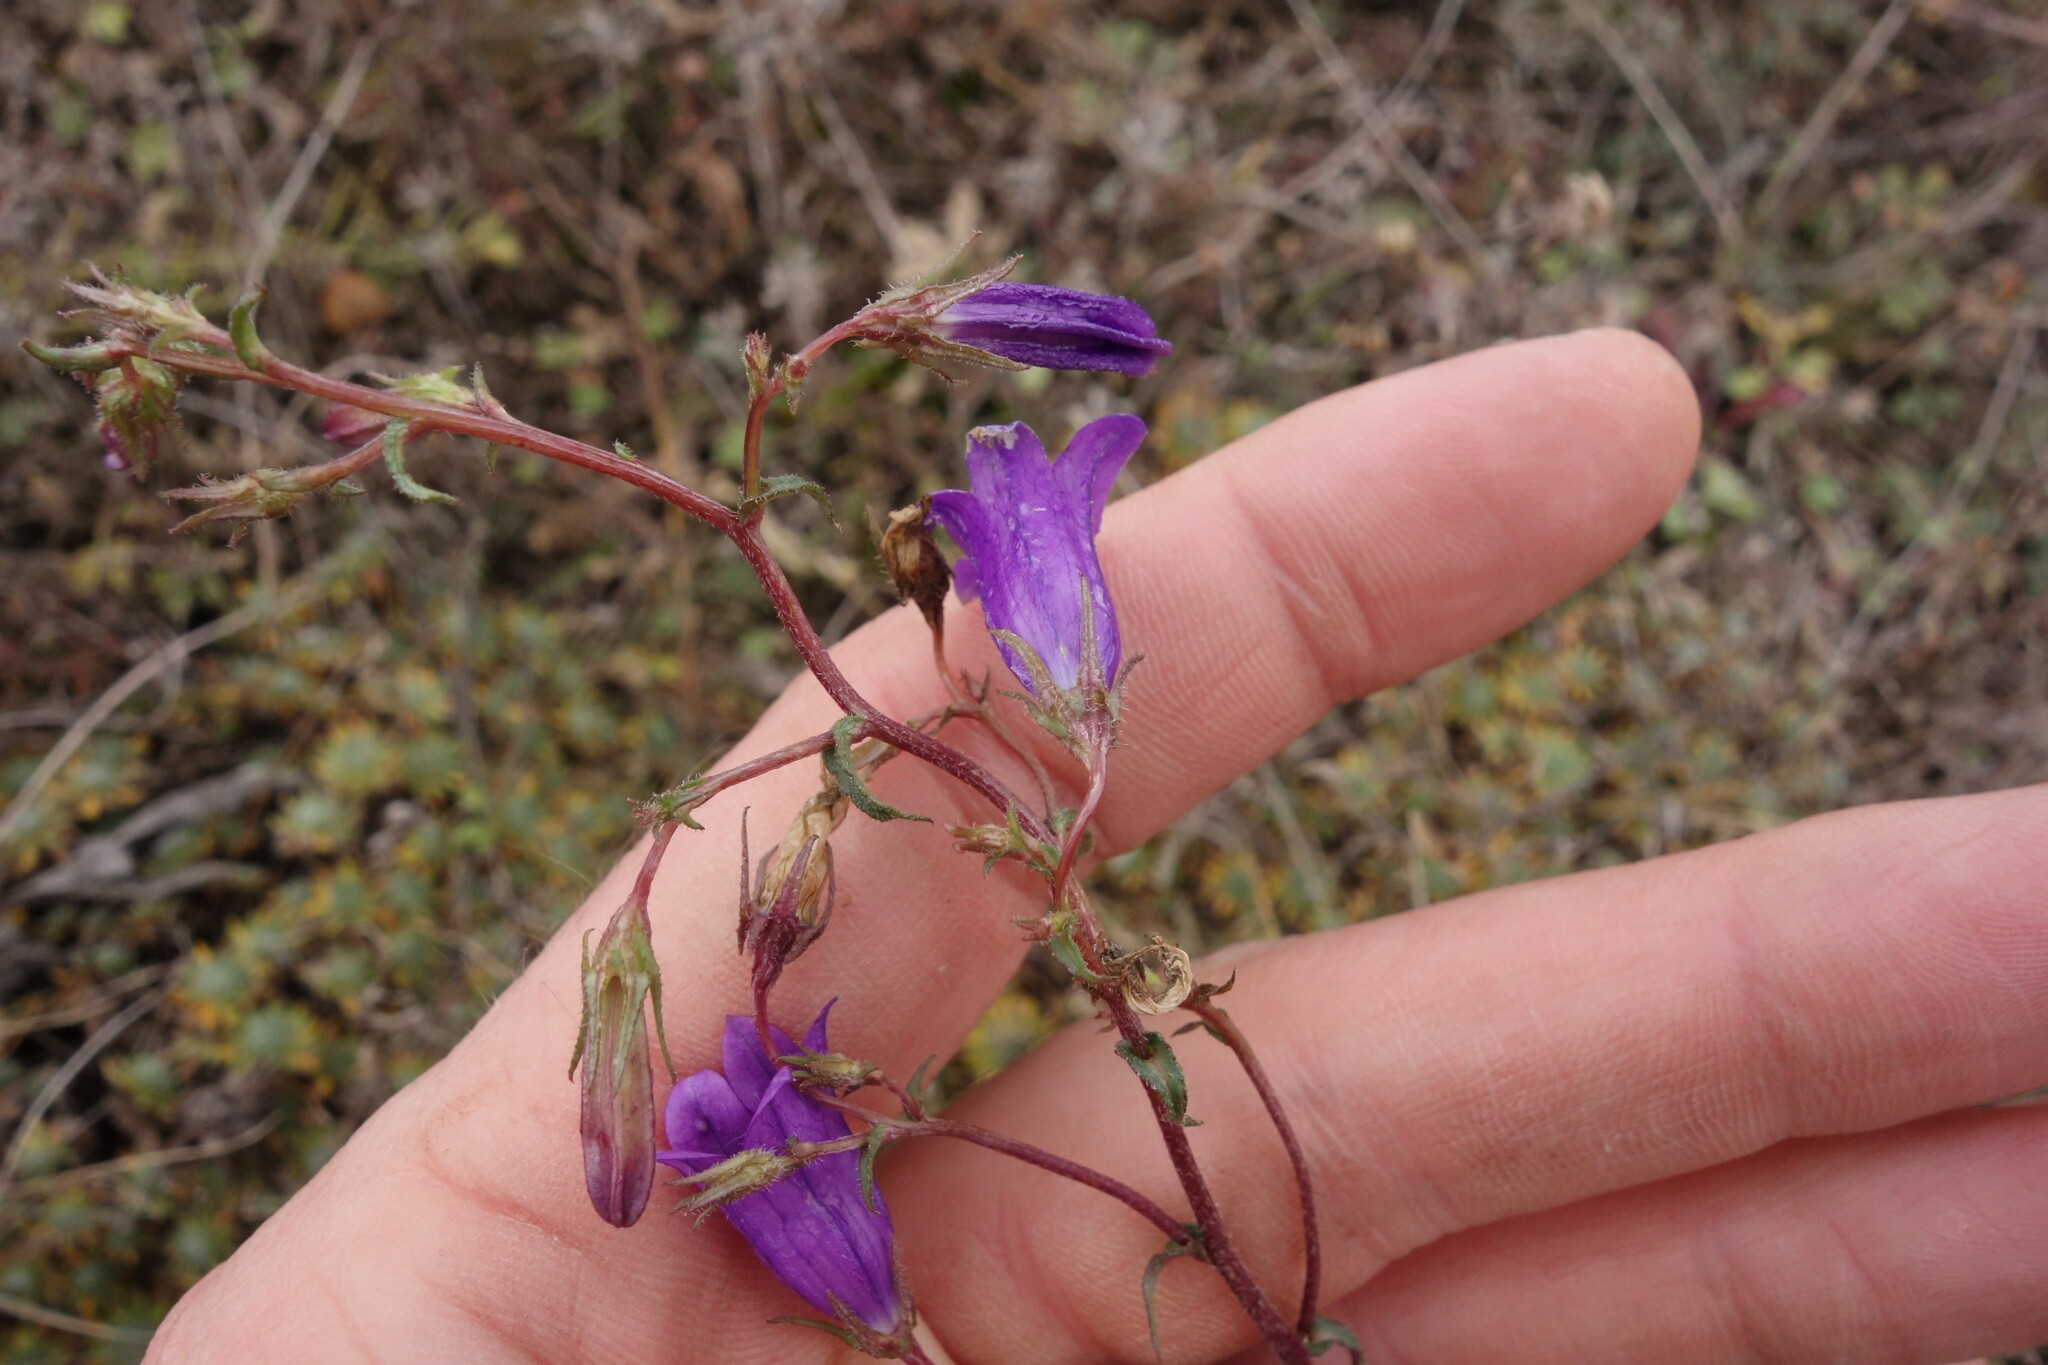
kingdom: Plantae
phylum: Tracheophyta
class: Magnoliopsida
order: Asterales
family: Campanulaceae
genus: Campanula
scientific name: Campanula sibirica
